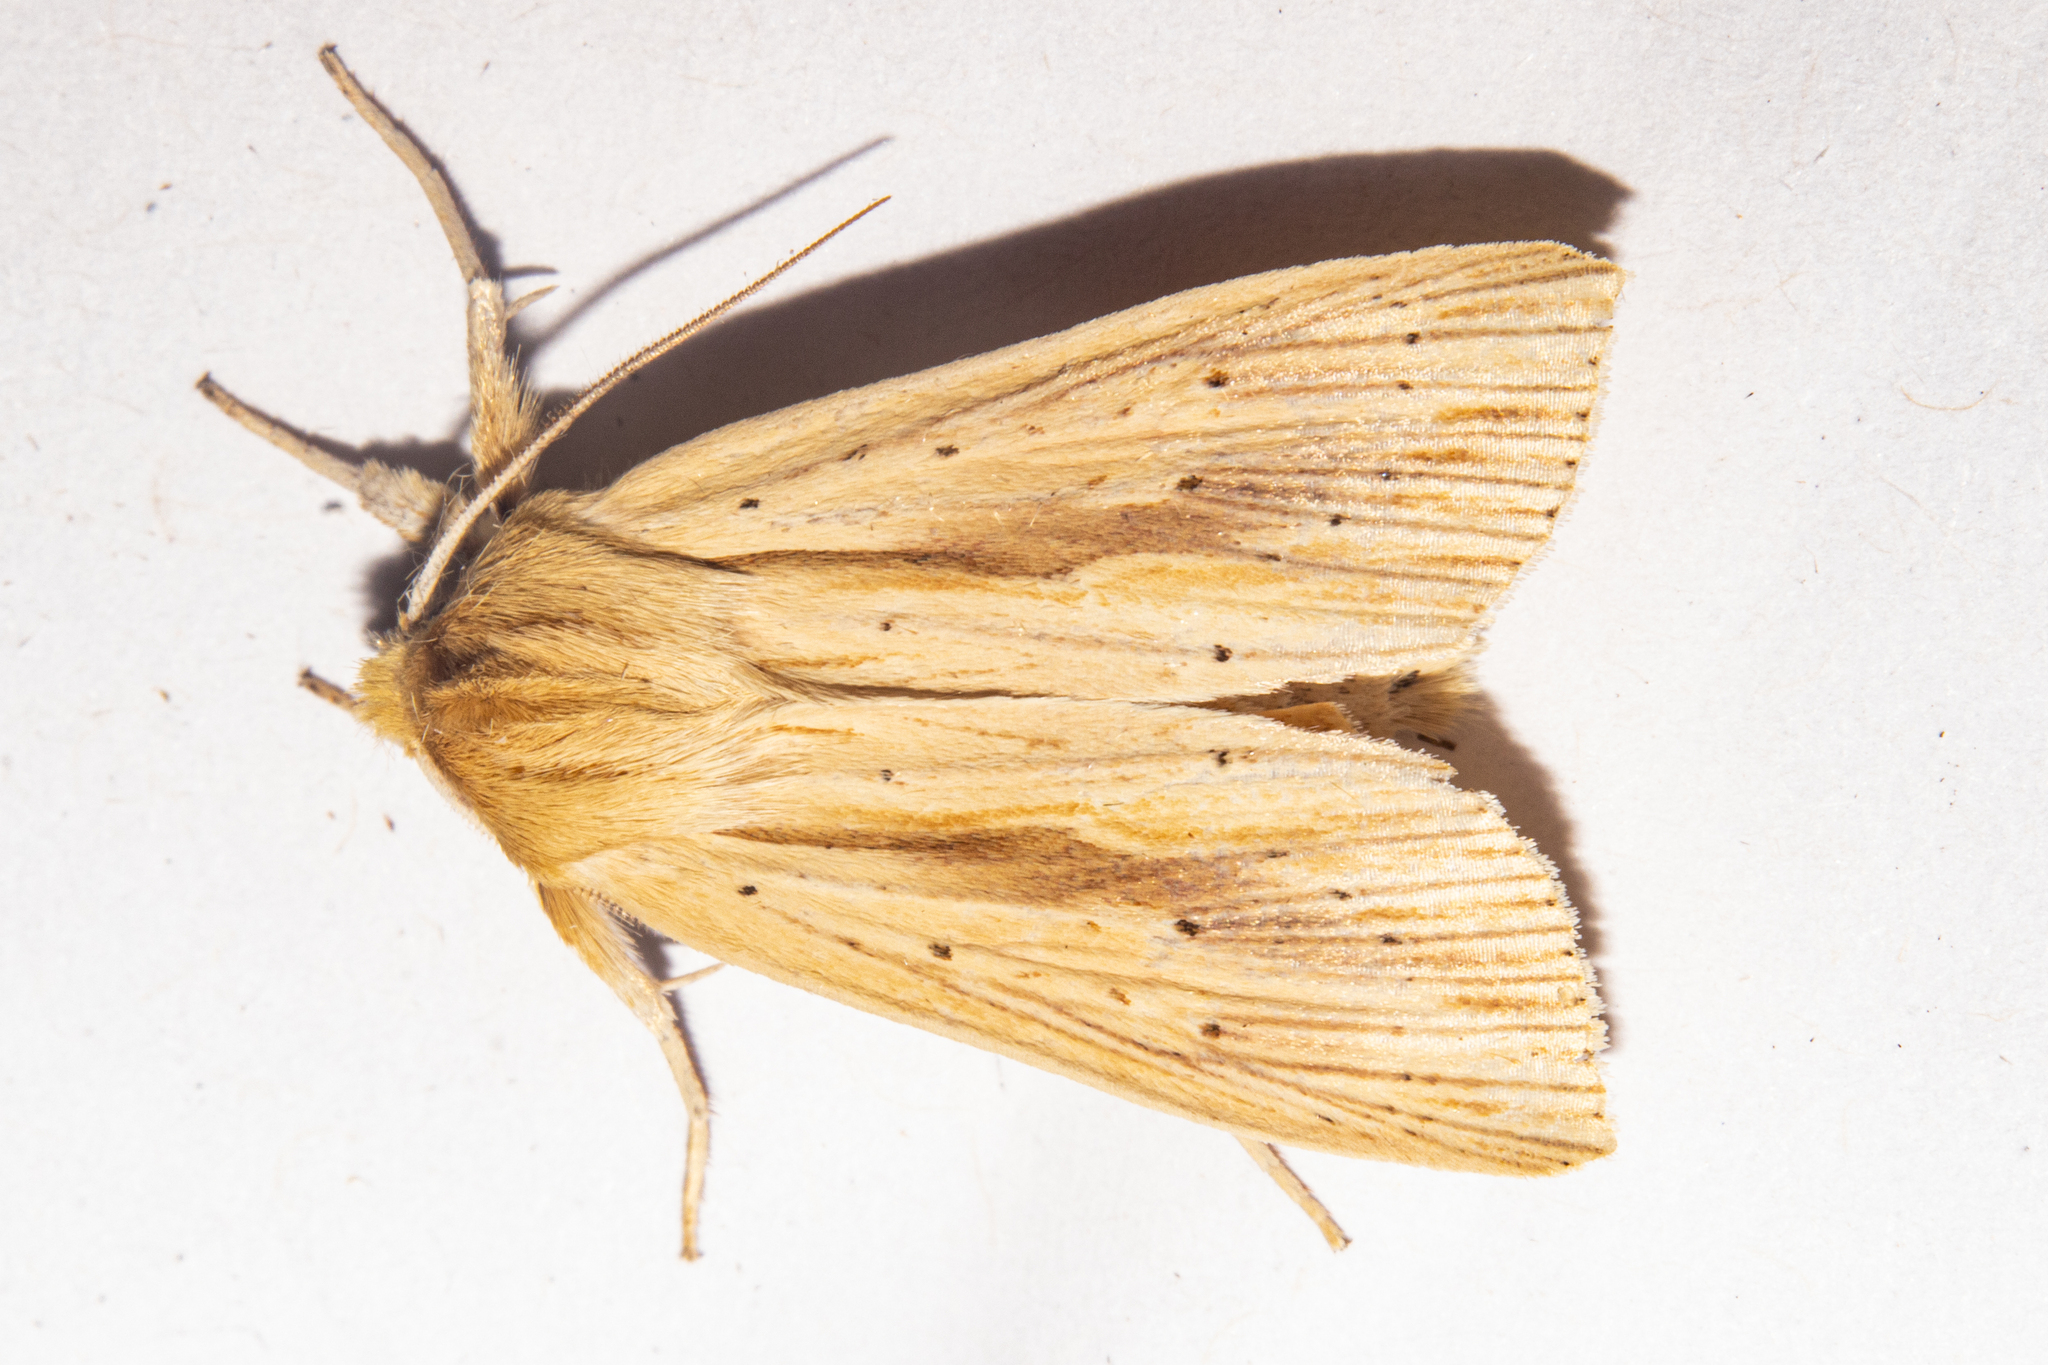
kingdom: Animalia
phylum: Arthropoda
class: Insecta
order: Lepidoptera
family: Noctuidae
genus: Ichneutica
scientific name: Ichneutica semivittata
